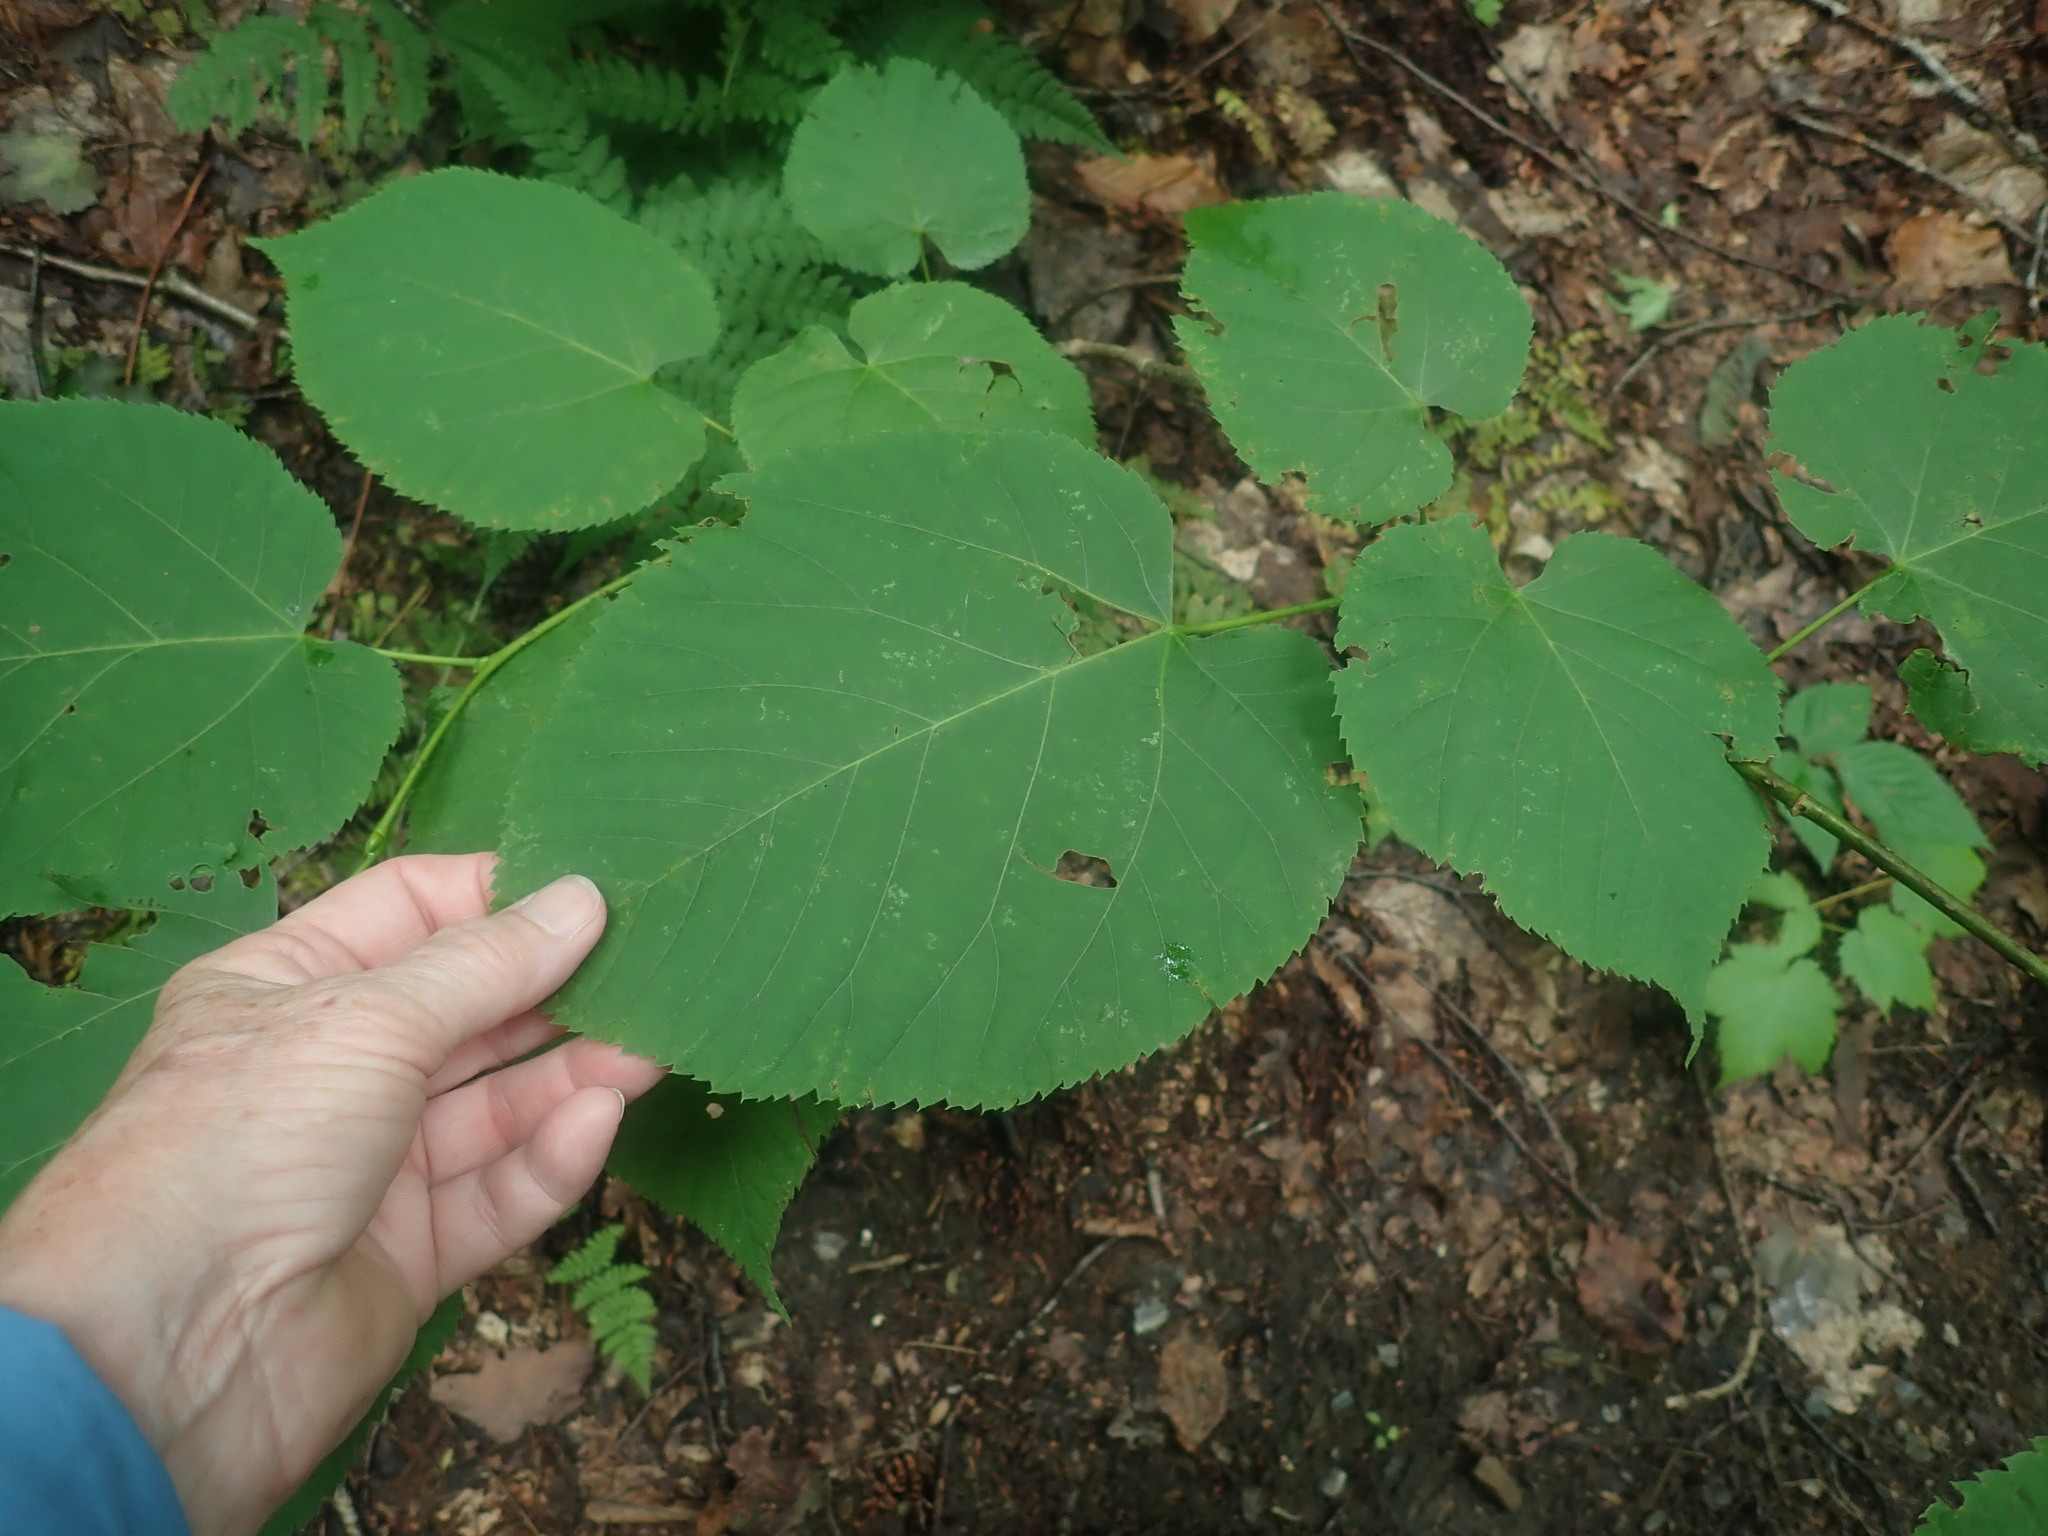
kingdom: Plantae
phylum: Tracheophyta
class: Magnoliopsida
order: Malvales
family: Malvaceae
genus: Tilia
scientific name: Tilia americana
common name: Basswood
